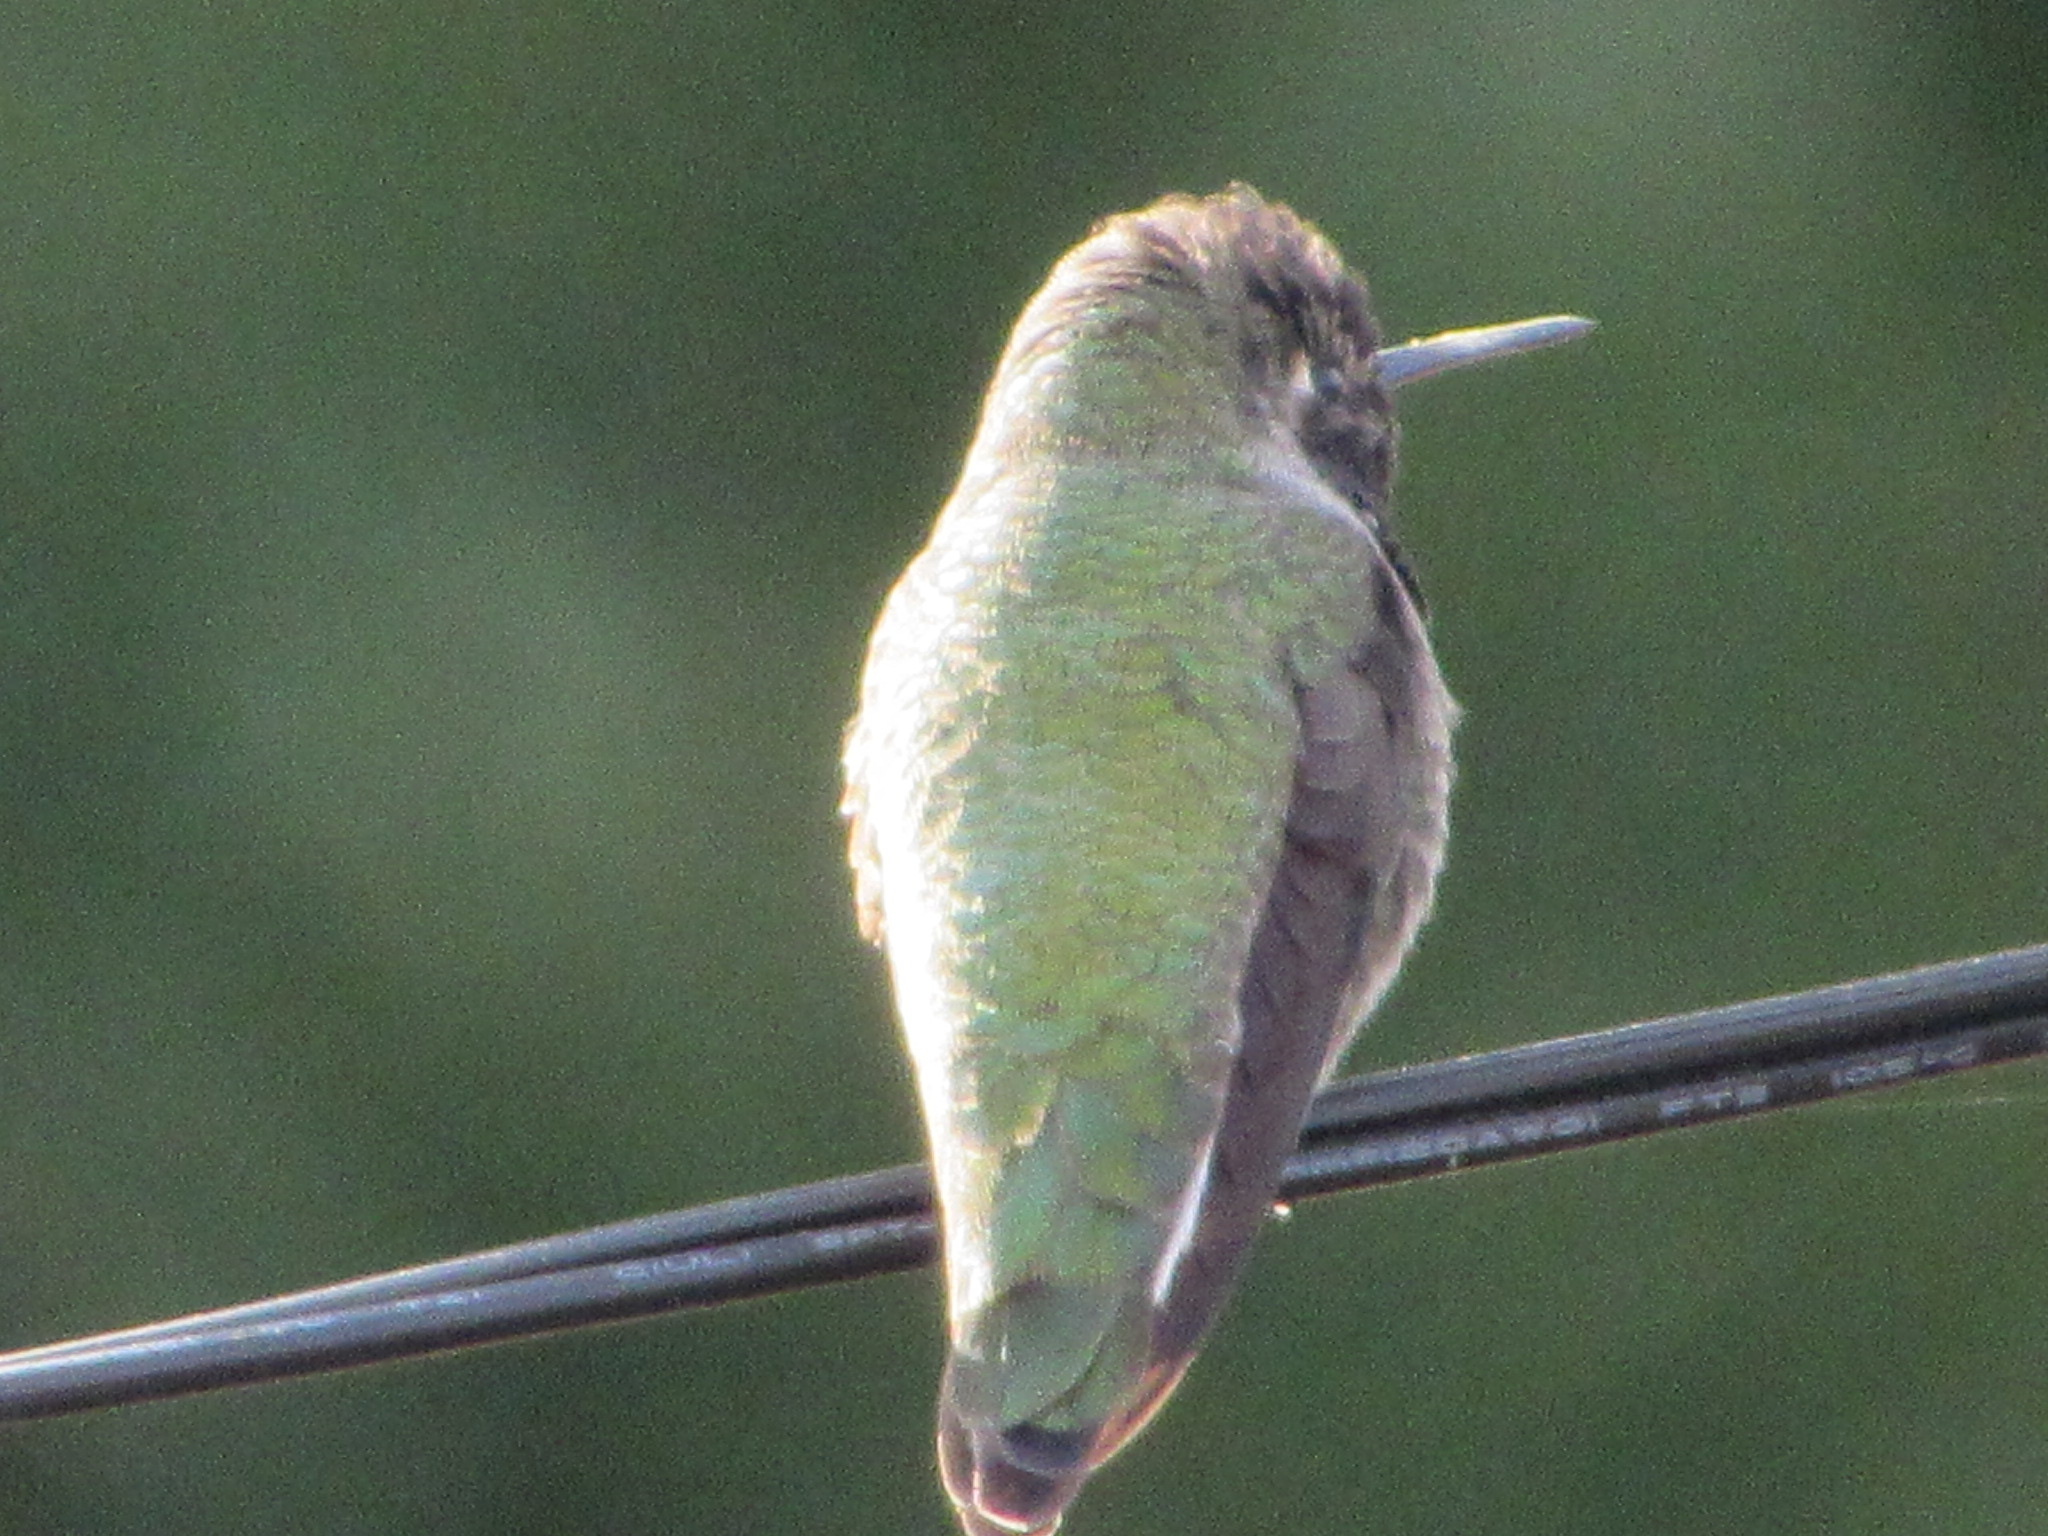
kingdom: Animalia
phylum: Chordata
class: Aves
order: Apodiformes
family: Trochilidae
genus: Calypte
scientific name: Calypte anna
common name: Anna's hummingbird
